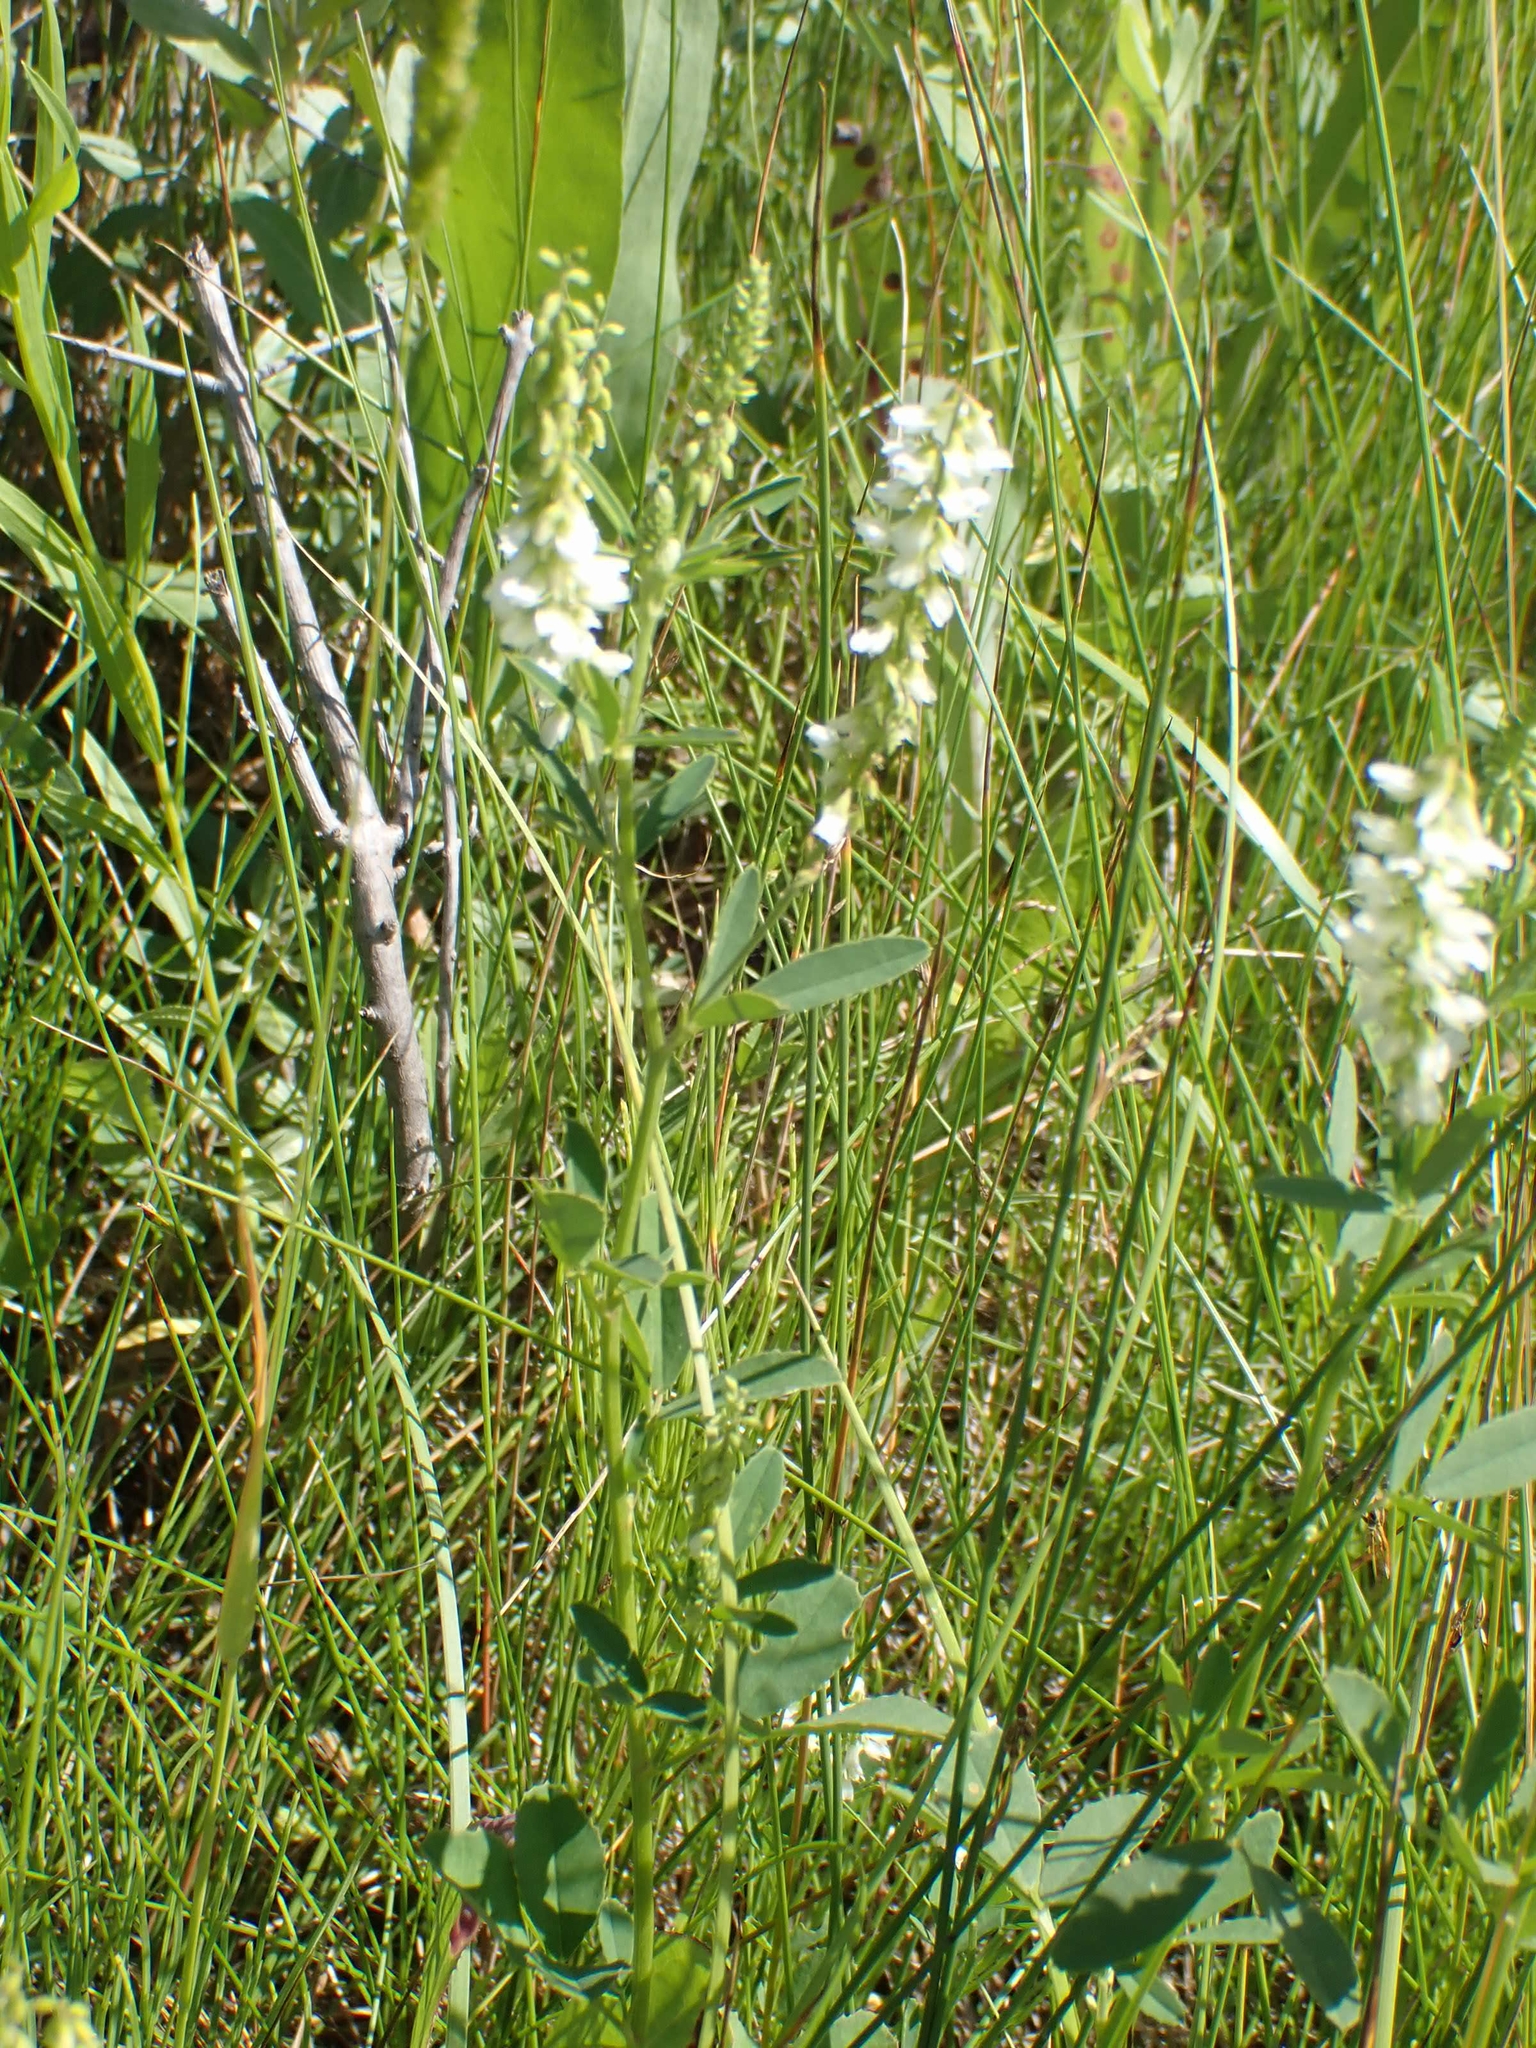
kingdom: Plantae
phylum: Tracheophyta
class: Magnoliopsida
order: Fabales
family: Fabaceae
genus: Melilotus
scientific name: Melilotus albus
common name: White melilot
